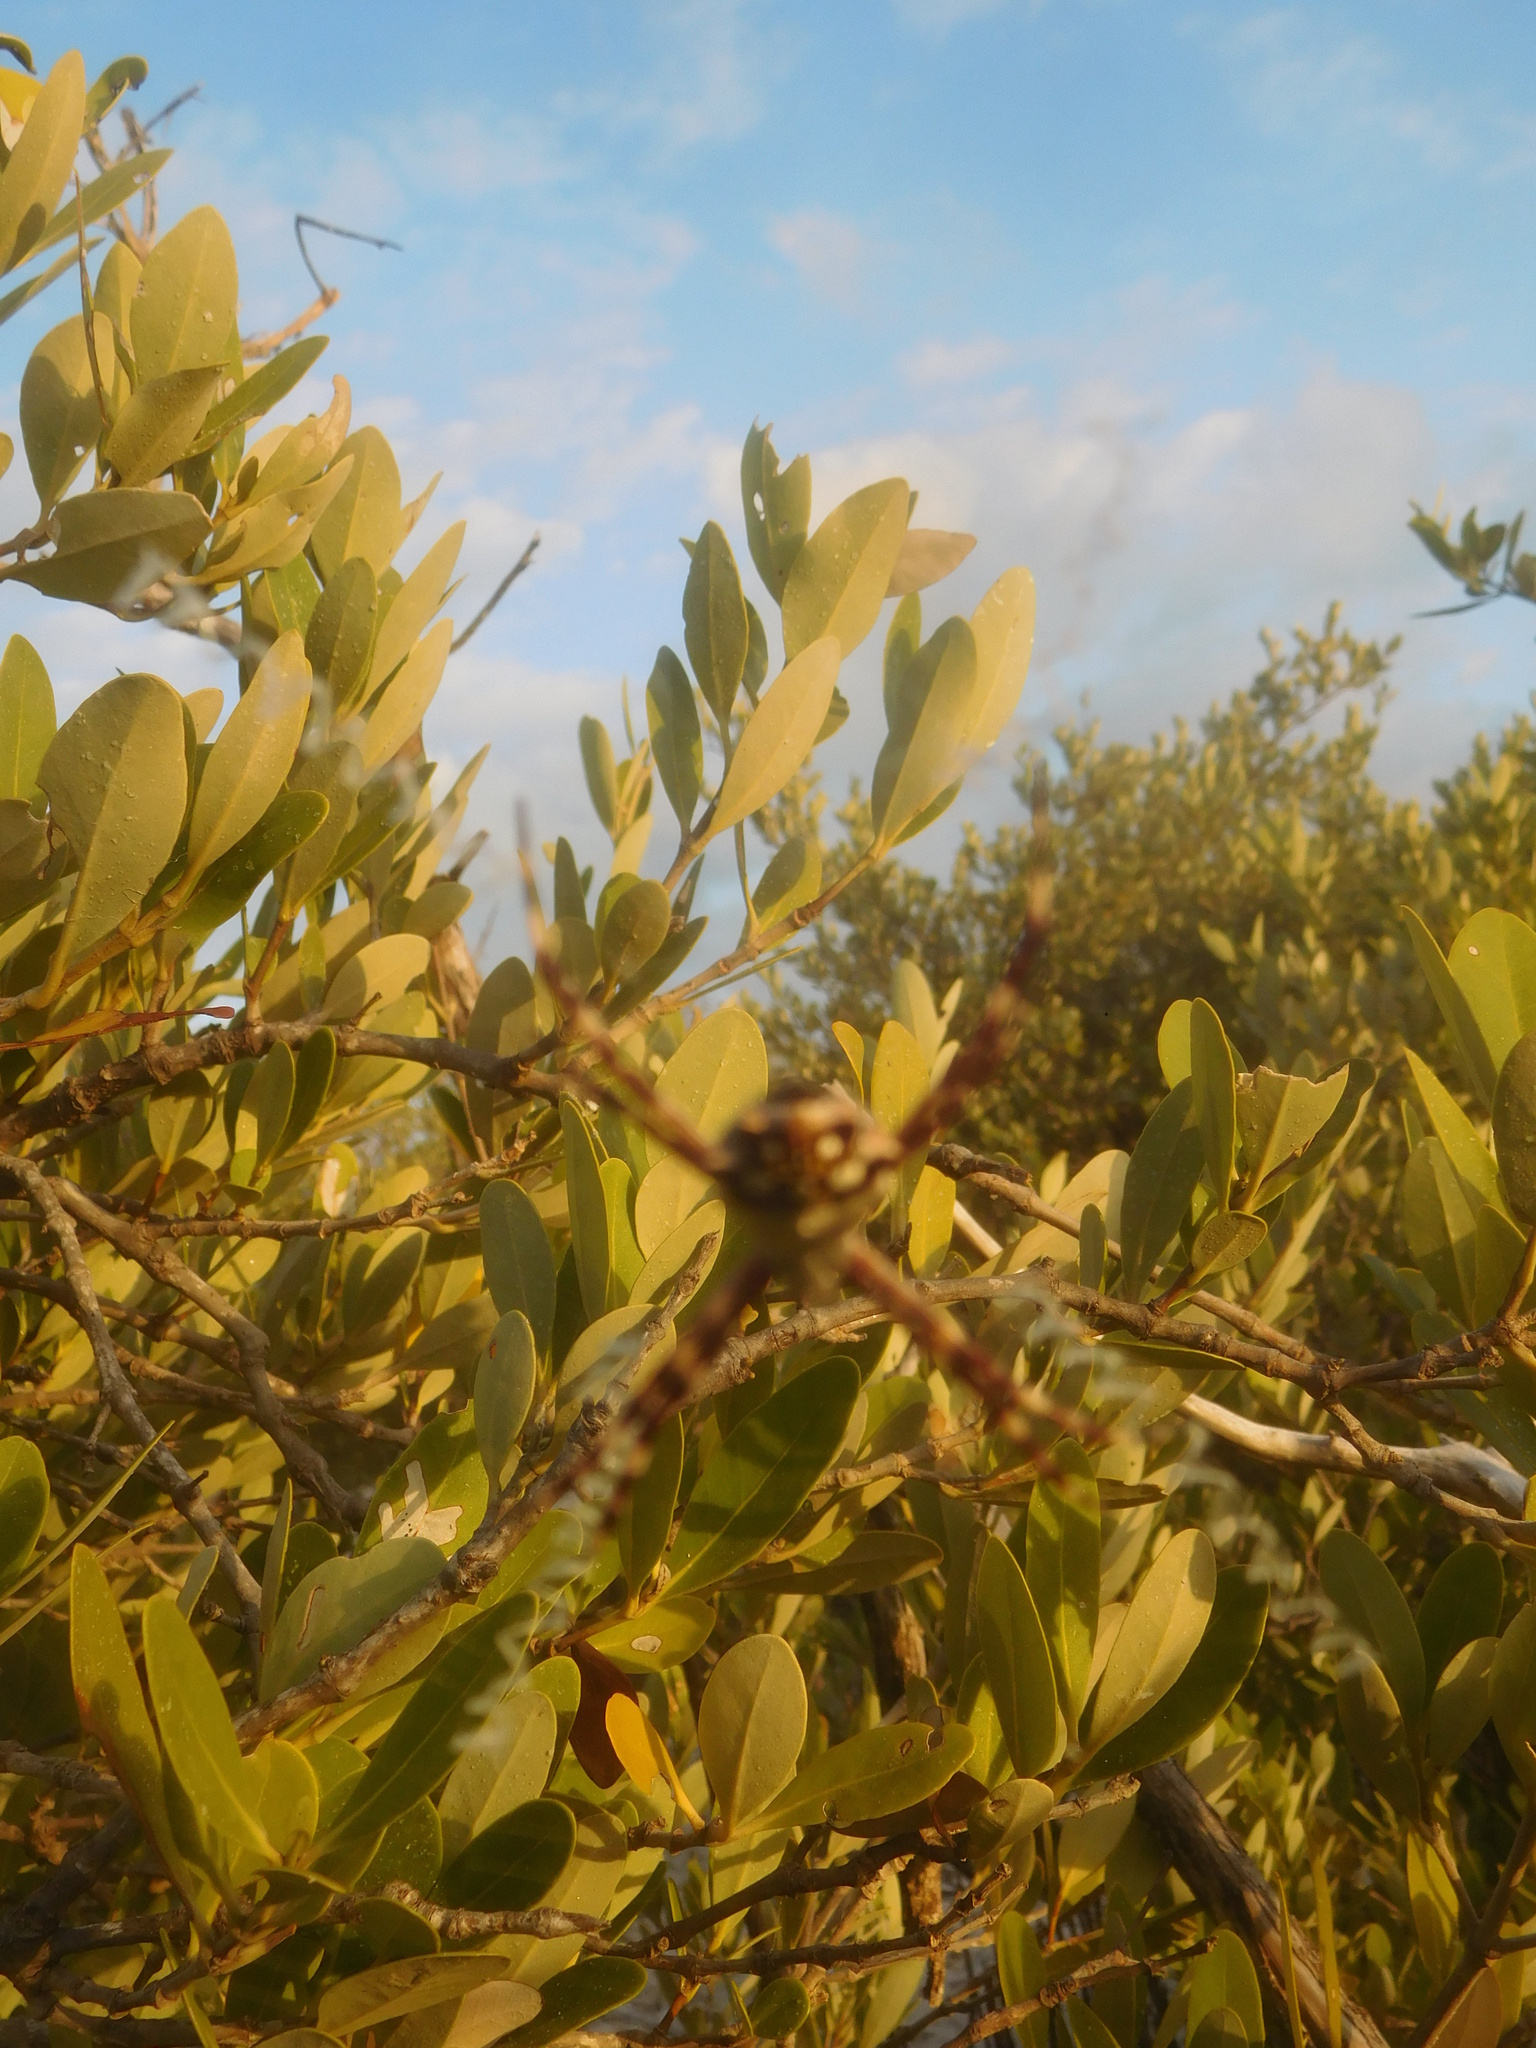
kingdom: Animalia
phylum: Arthropoda
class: Arachnida
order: Araneae
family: Araneidae
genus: Argiope
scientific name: Argiope argentata
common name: Orb weavers
